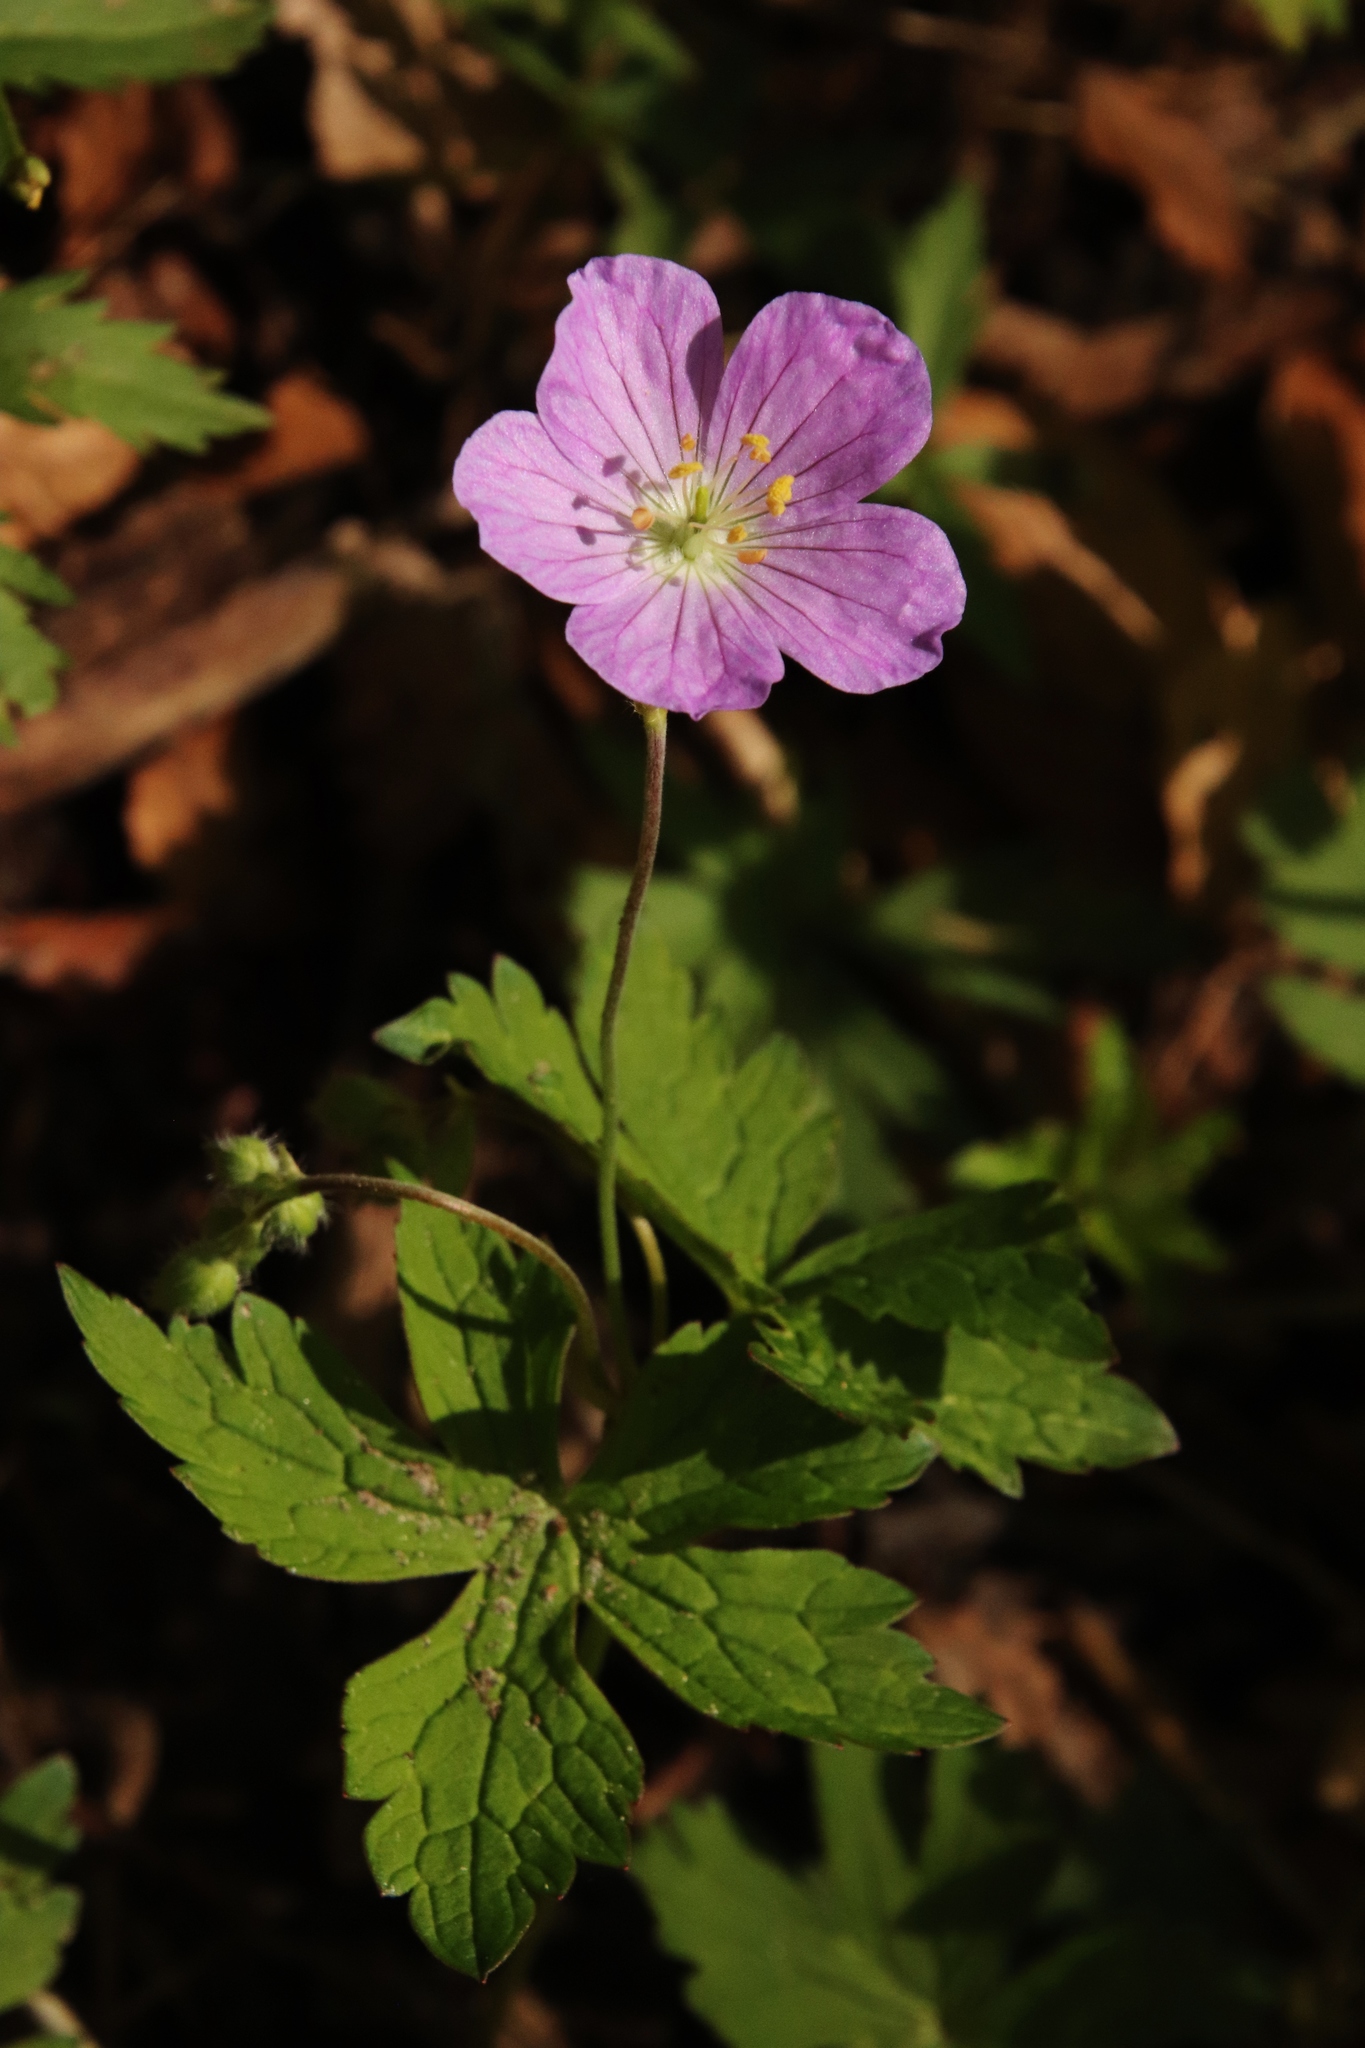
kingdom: Plantae
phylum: Tracheophyta
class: Magnoliopsida
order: Geraniales
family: Geraniaceae
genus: Geranium
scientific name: Geranium maculatum
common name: Spotted geranium
